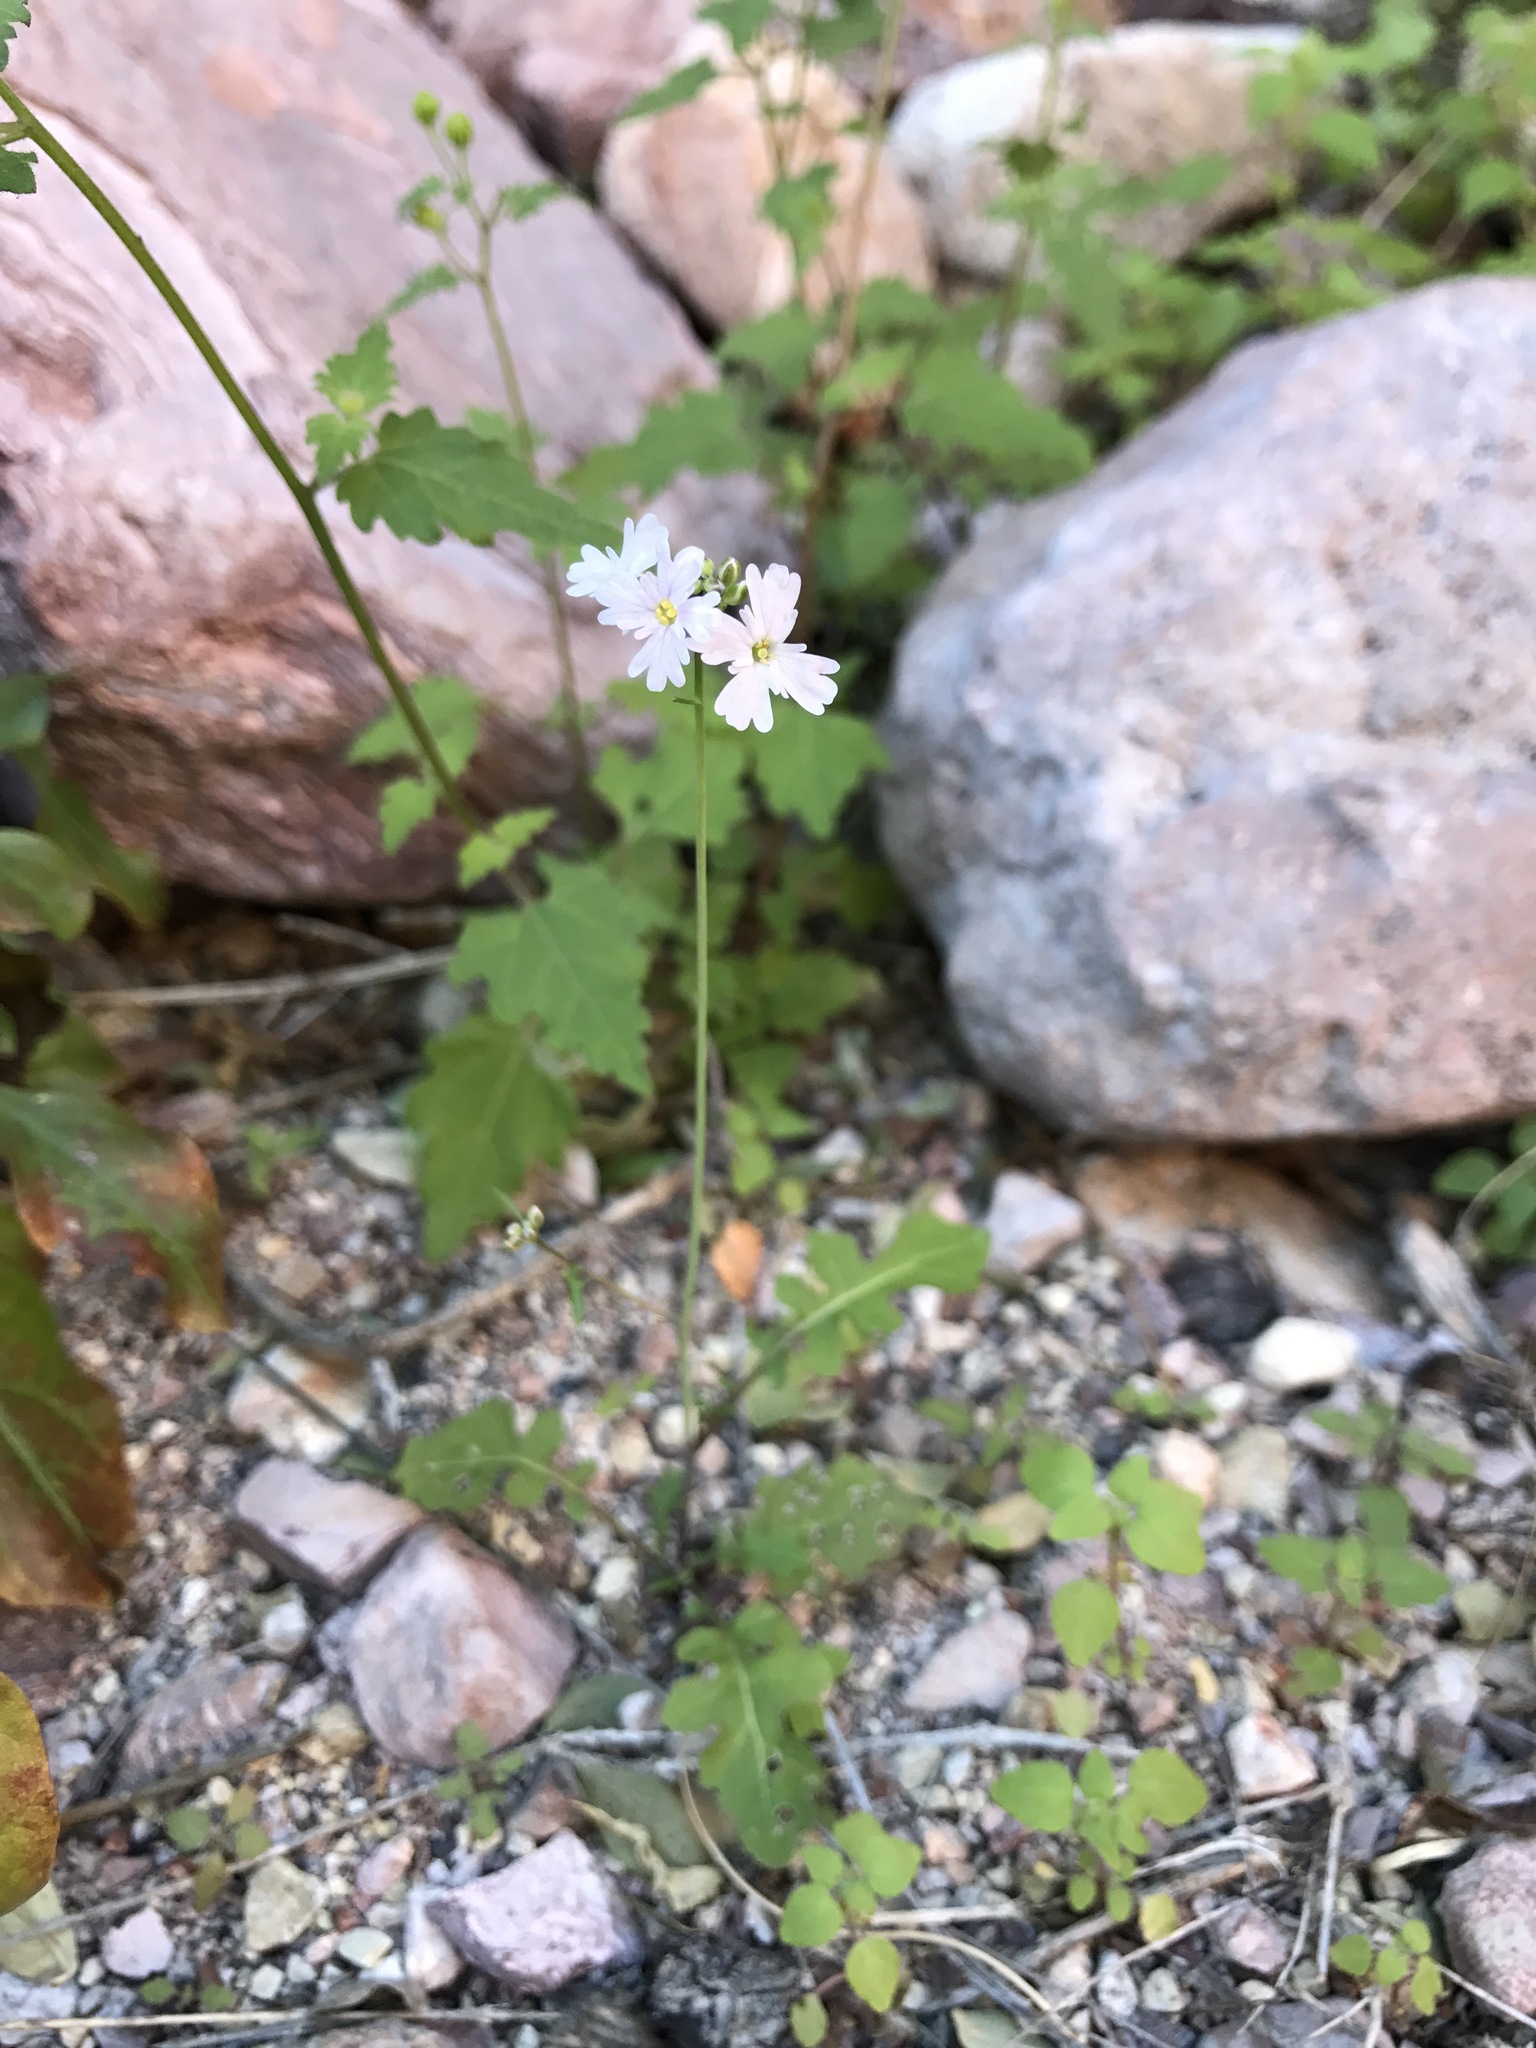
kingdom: Plantae
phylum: Tracheophyta
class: Magnoliopsida
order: Brassicales
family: Brassicaceae
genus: Dryopetalon
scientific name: Dryopetalon runcinatum
